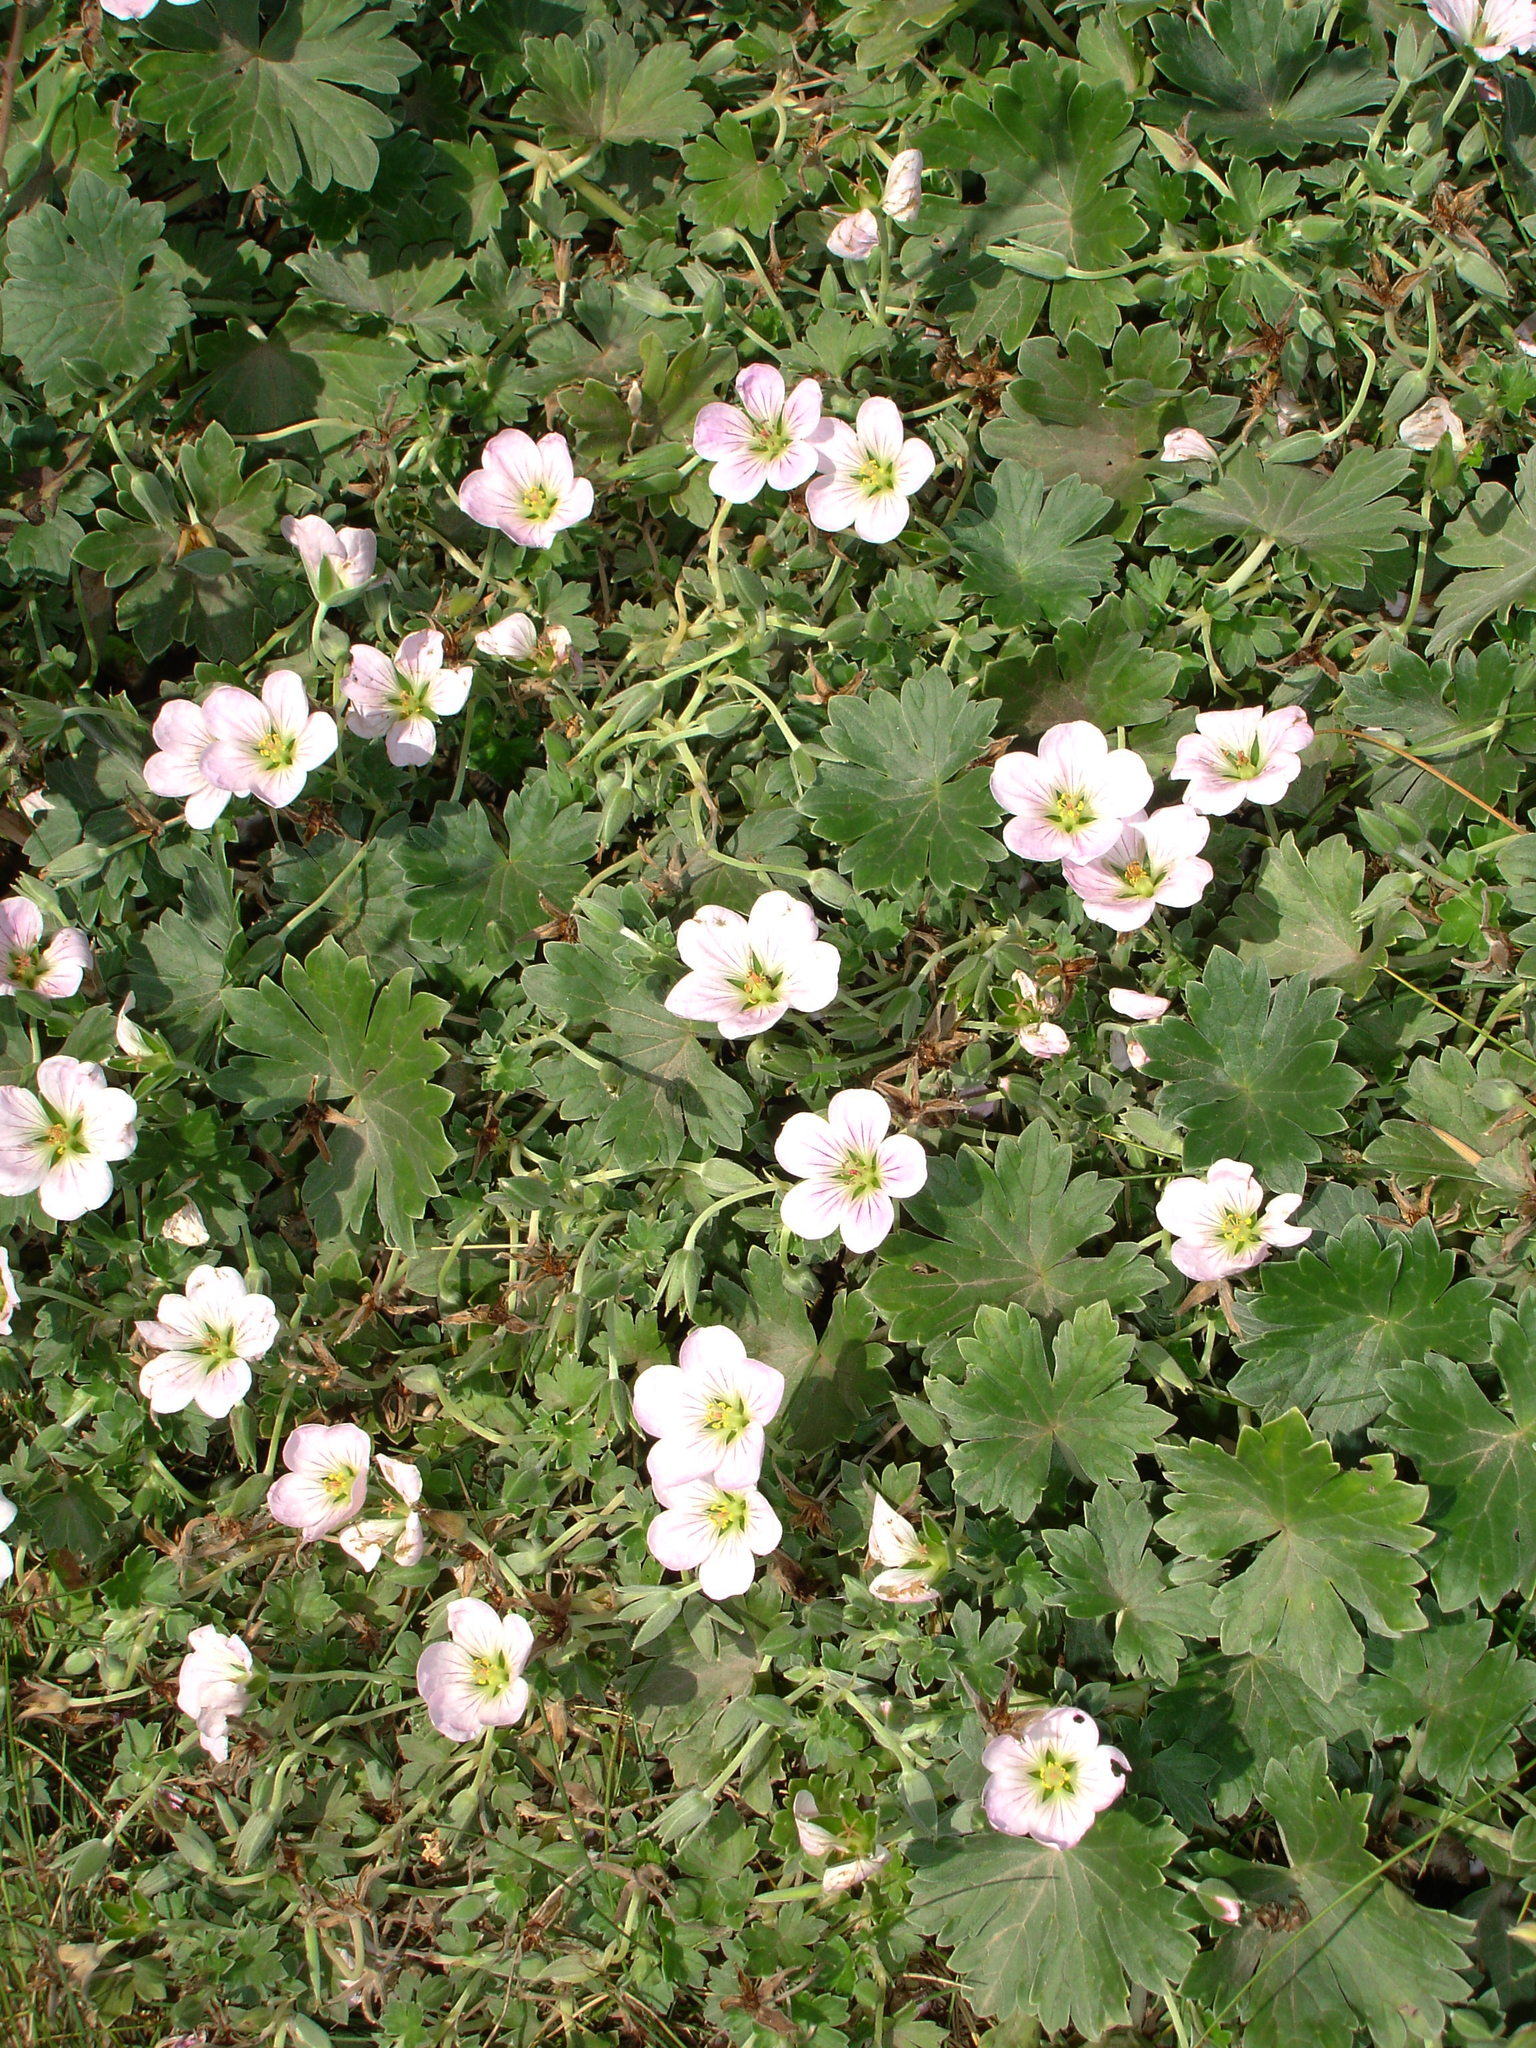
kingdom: Plantae
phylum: Tracheophyta
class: Magnoliopsida
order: Geraniales
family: Geraniaceae
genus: Geranium
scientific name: Geranium traversii
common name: Cranesbill
